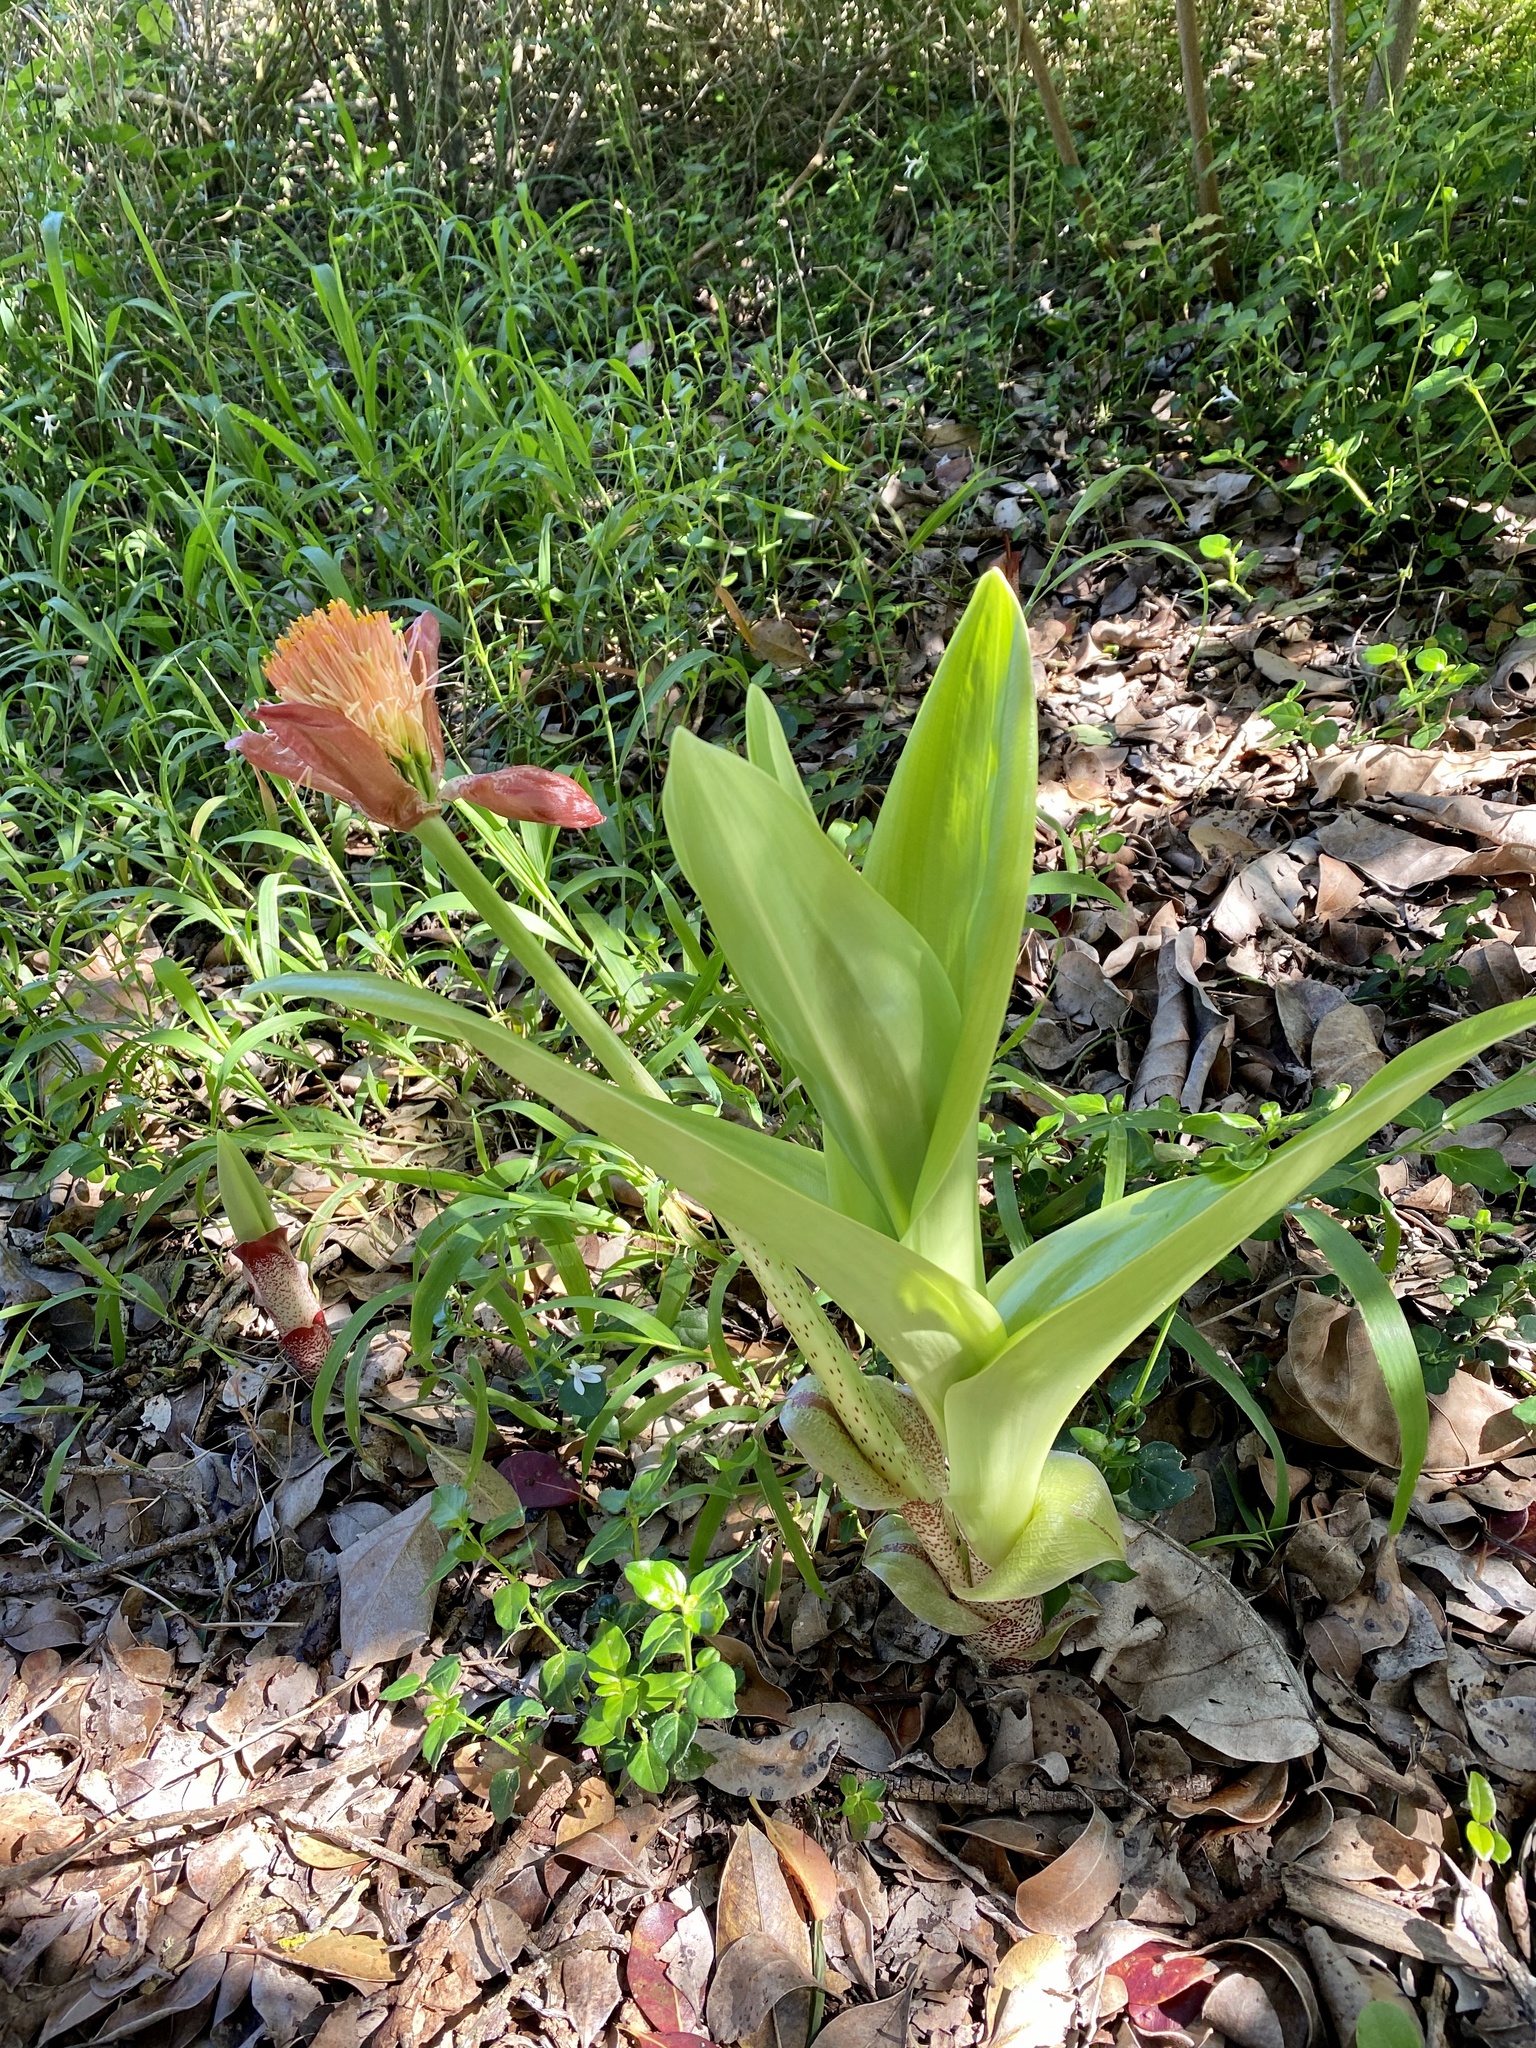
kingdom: Plantae
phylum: Tracheophyta
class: Liliopsida
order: Asparagales
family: Amaryllidaceae
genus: Scadoxus
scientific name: Scadoxus puniceus
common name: Royal-paintbrush
